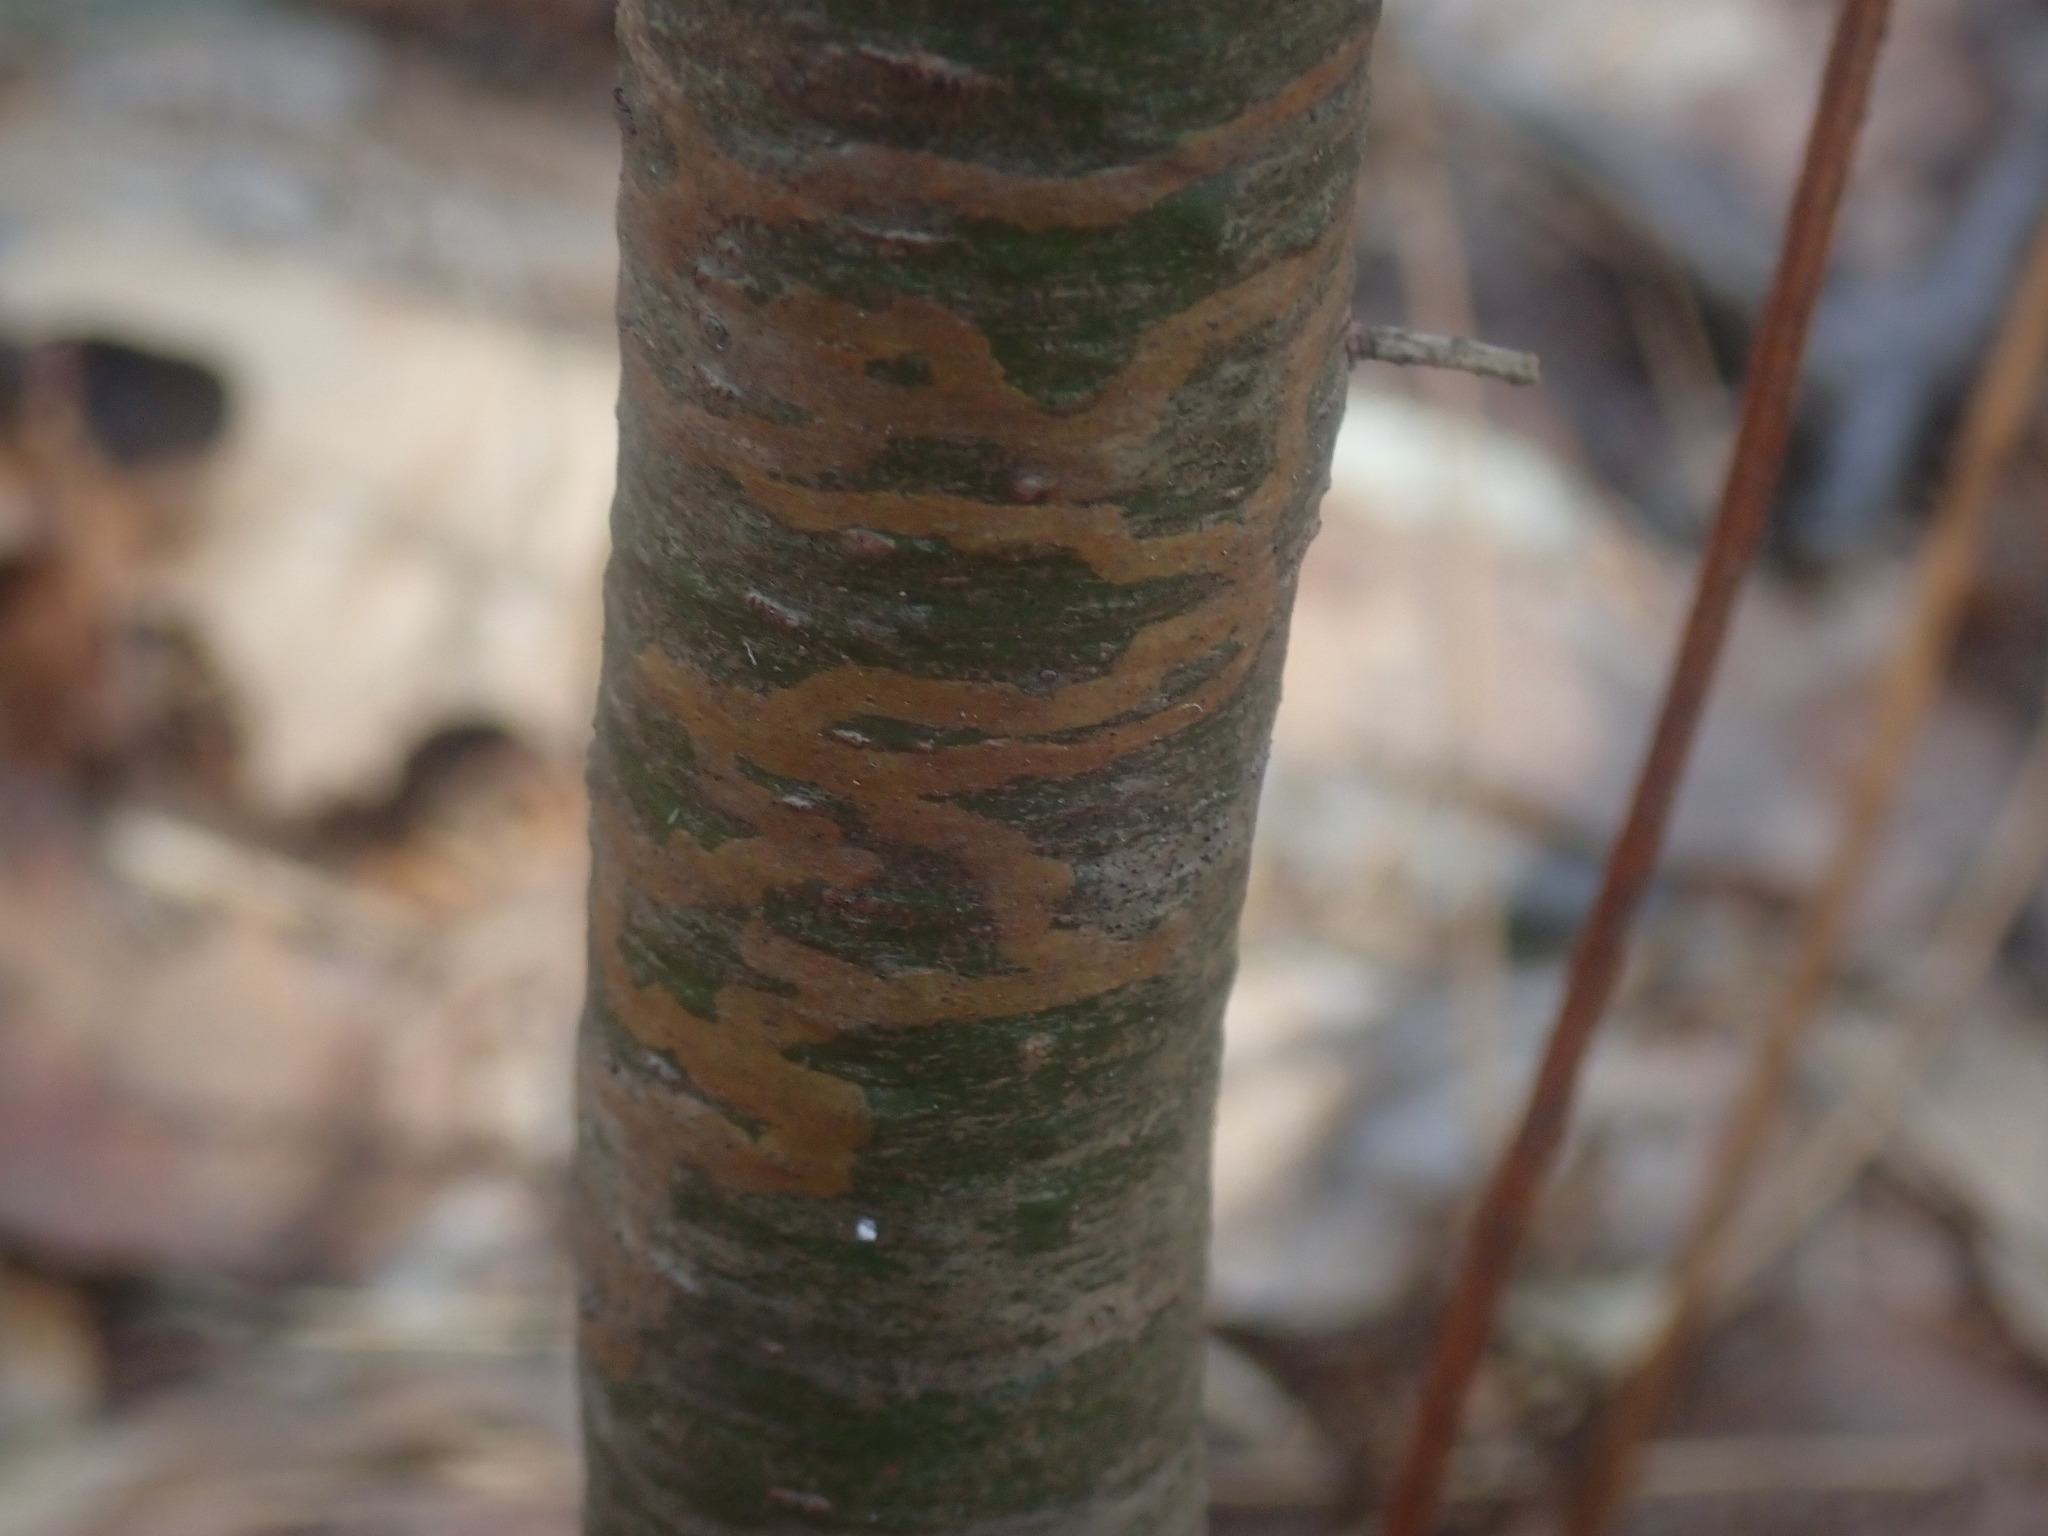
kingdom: Animalia
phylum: Arthropoda
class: Insecta
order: Lepidoptera
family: Gracillariidae
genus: Marmara
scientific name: Marmara fasciella
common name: White pine barkminer moth
